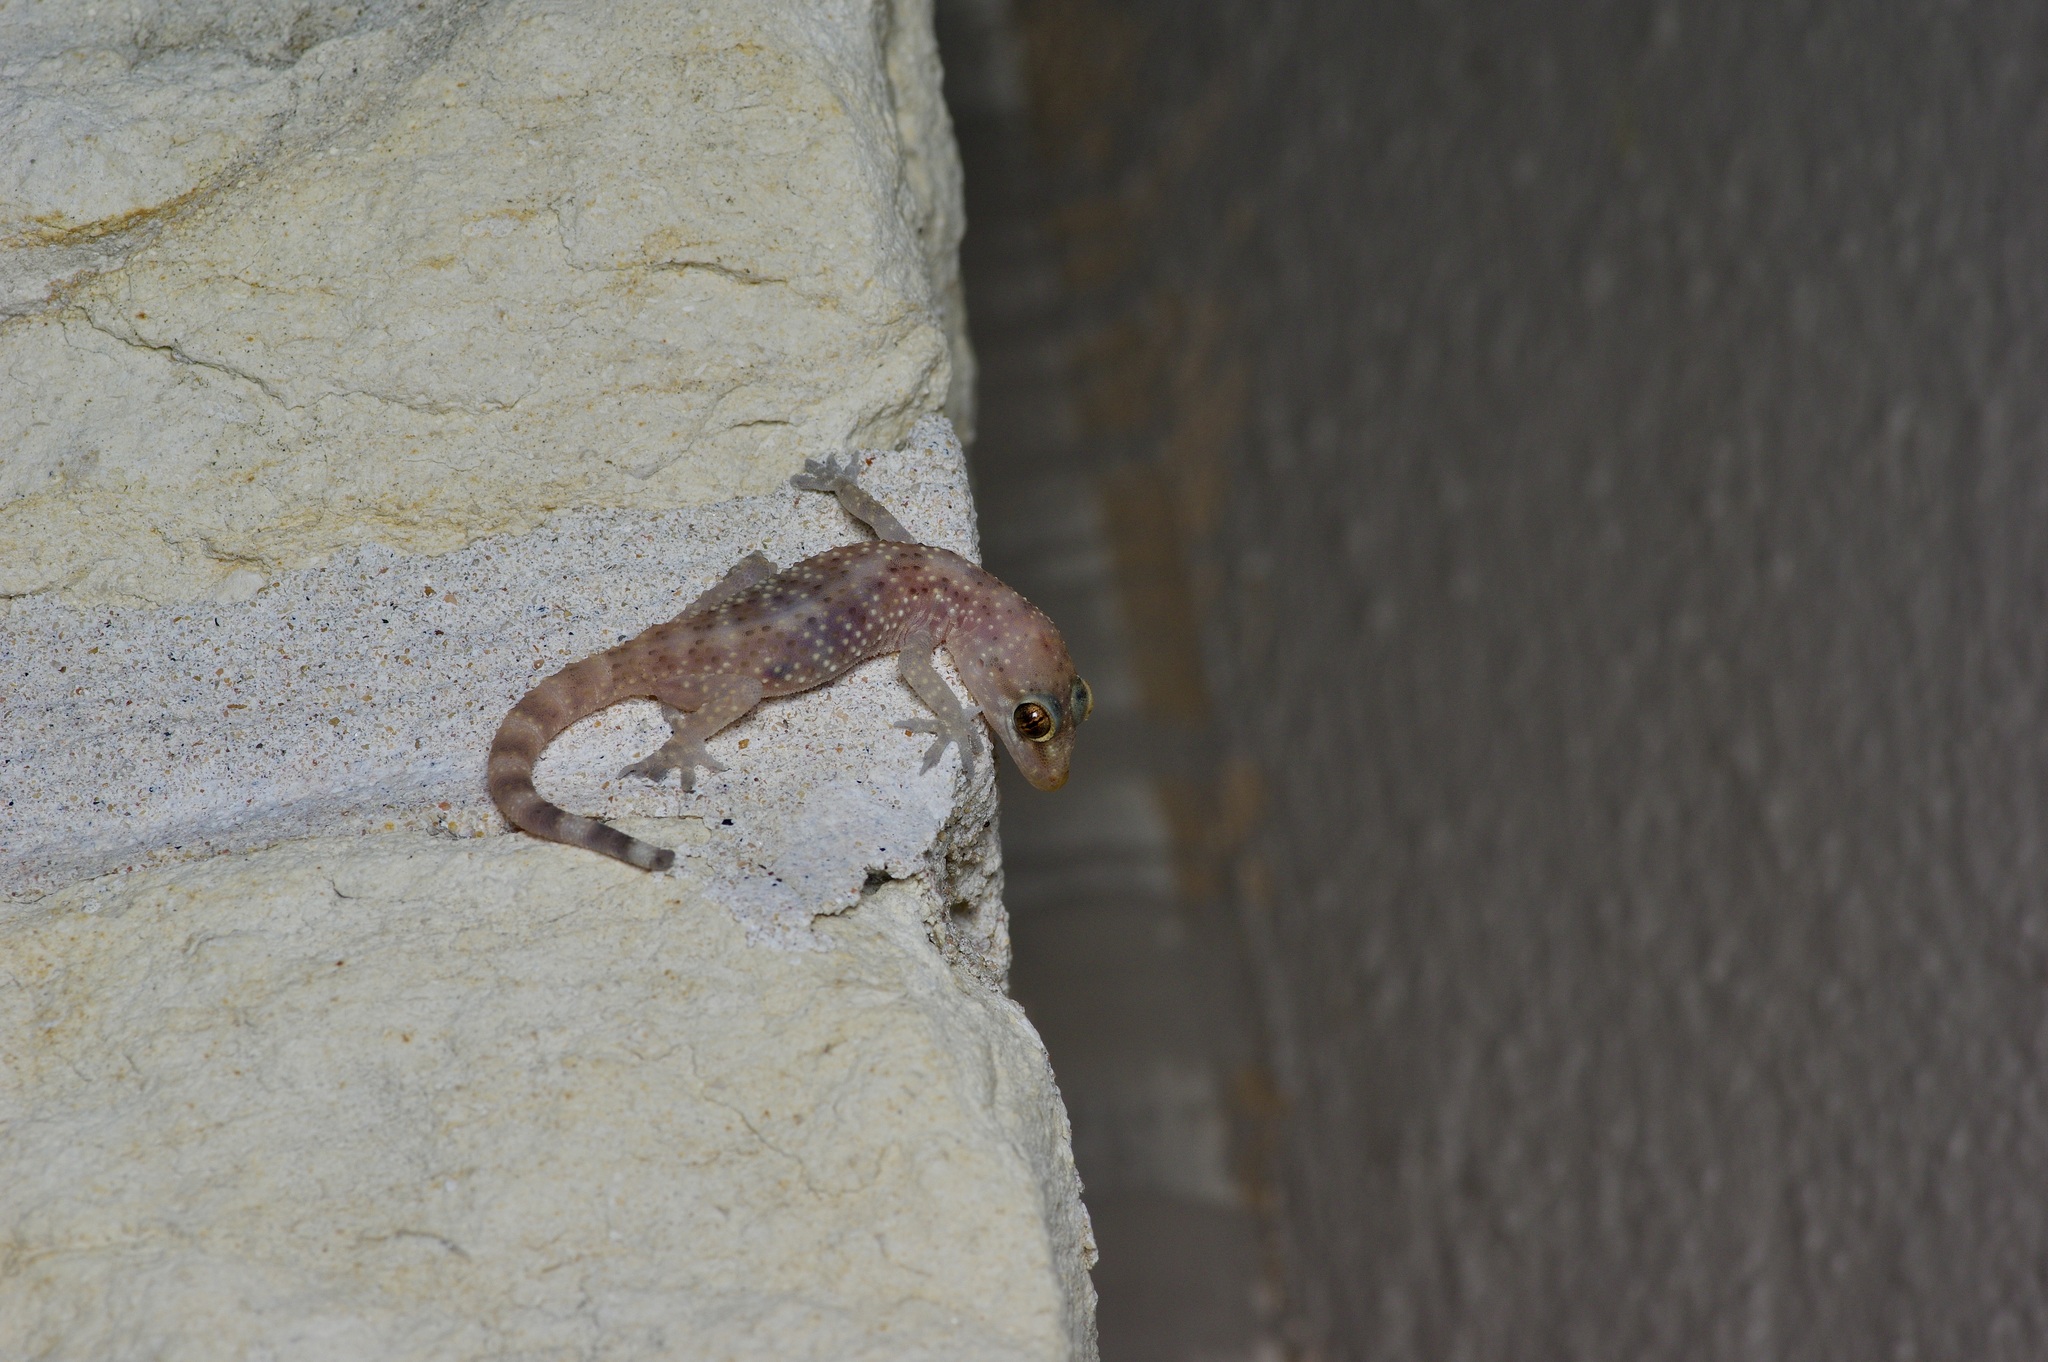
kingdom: Animalia
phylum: Chordata
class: Squamata
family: Gekkonidae
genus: Hemidactylus
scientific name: Hemidactylus turcicus
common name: Turkish gecko
